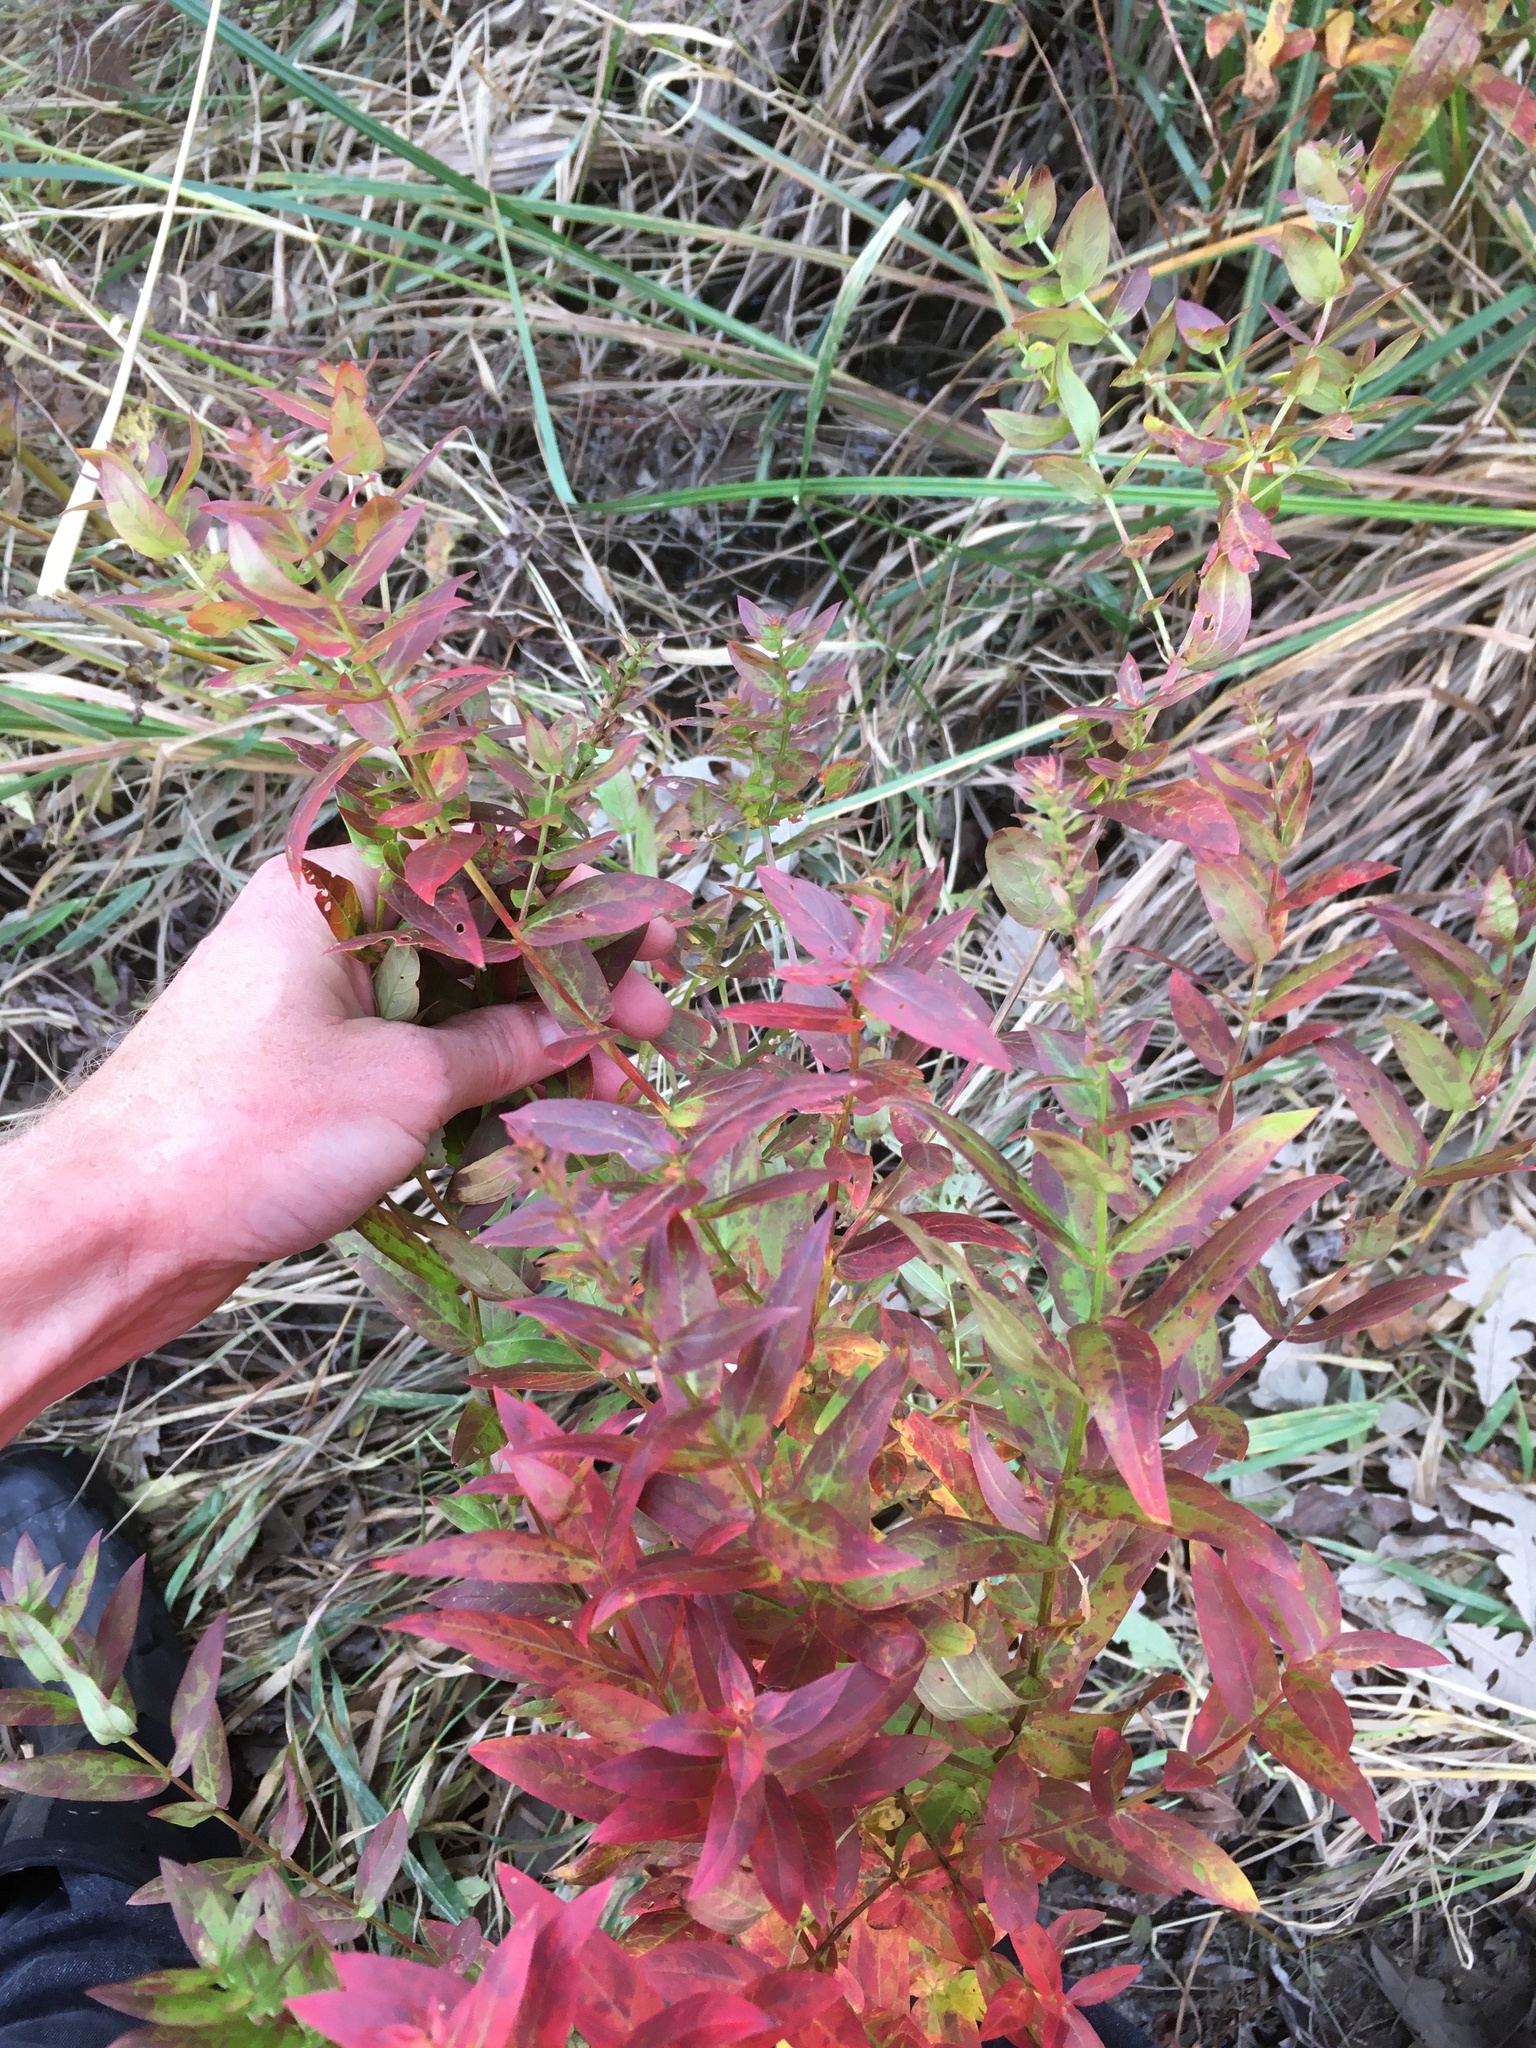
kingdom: Plantae
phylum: Tracheophyta
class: Magnoliopsida
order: Myrtales
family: Lythraceae
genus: Lythrum
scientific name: Lythrum salicaria
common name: Purple loosestrife
